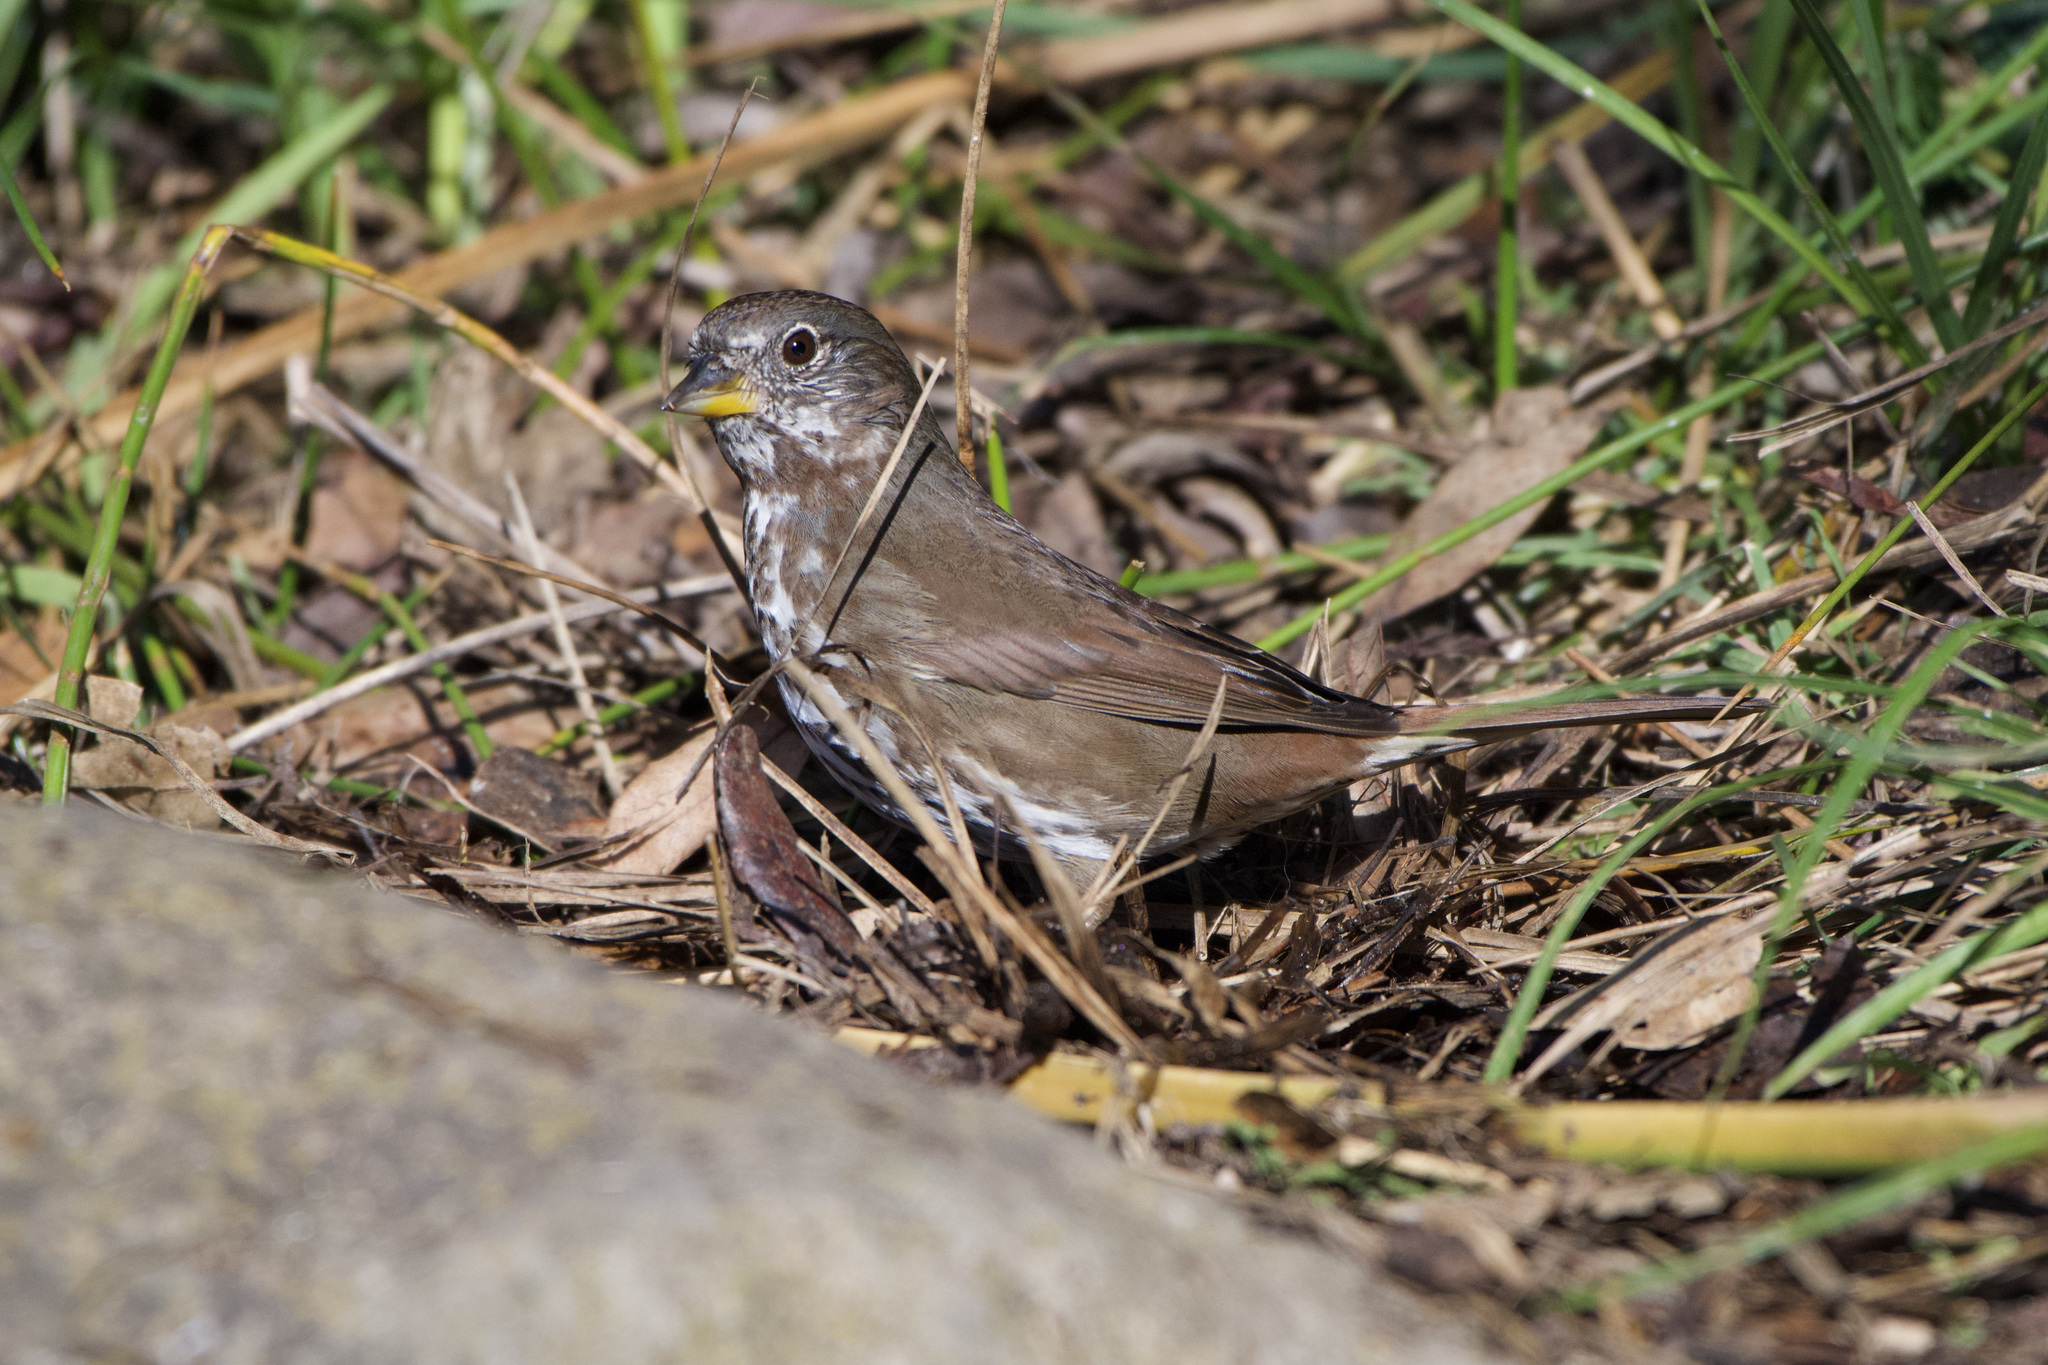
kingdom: Animalia
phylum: Chordata
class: Aves
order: Passeriformes
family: Passerellidae
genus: Passerella
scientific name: Passerella iliaca
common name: Fox sparrow
